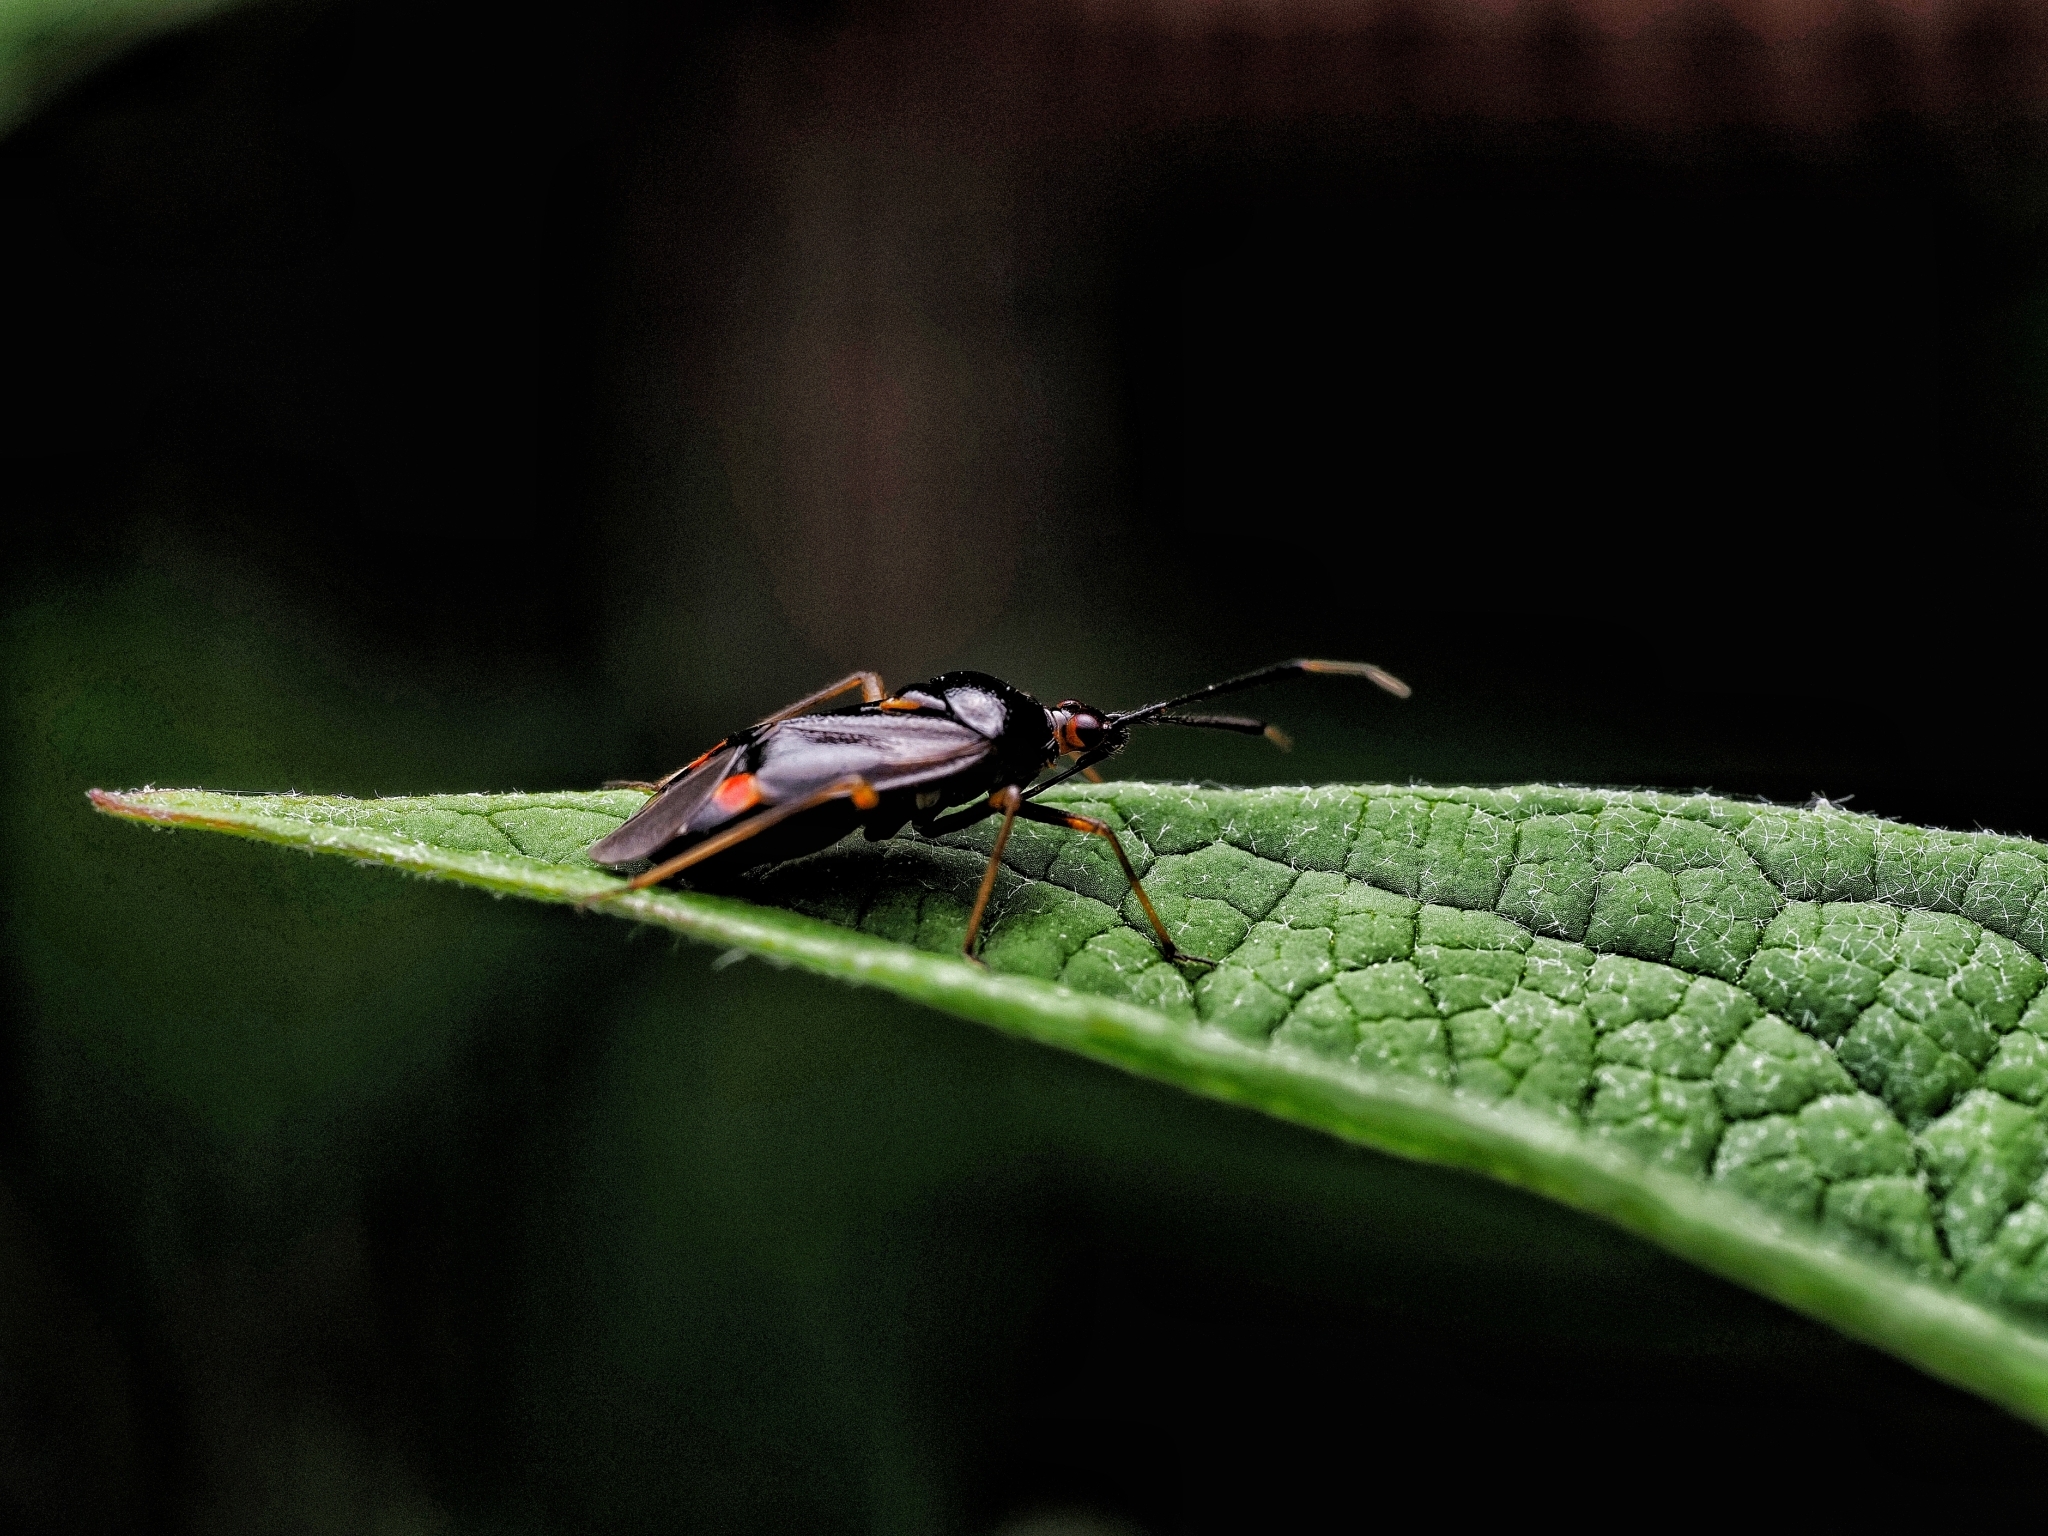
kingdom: Animalia
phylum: Arthropoda
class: Insecta
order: Hemiptera
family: Miridae
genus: Deraeocoris
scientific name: Deraeocoris ruber
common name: Plant bug
